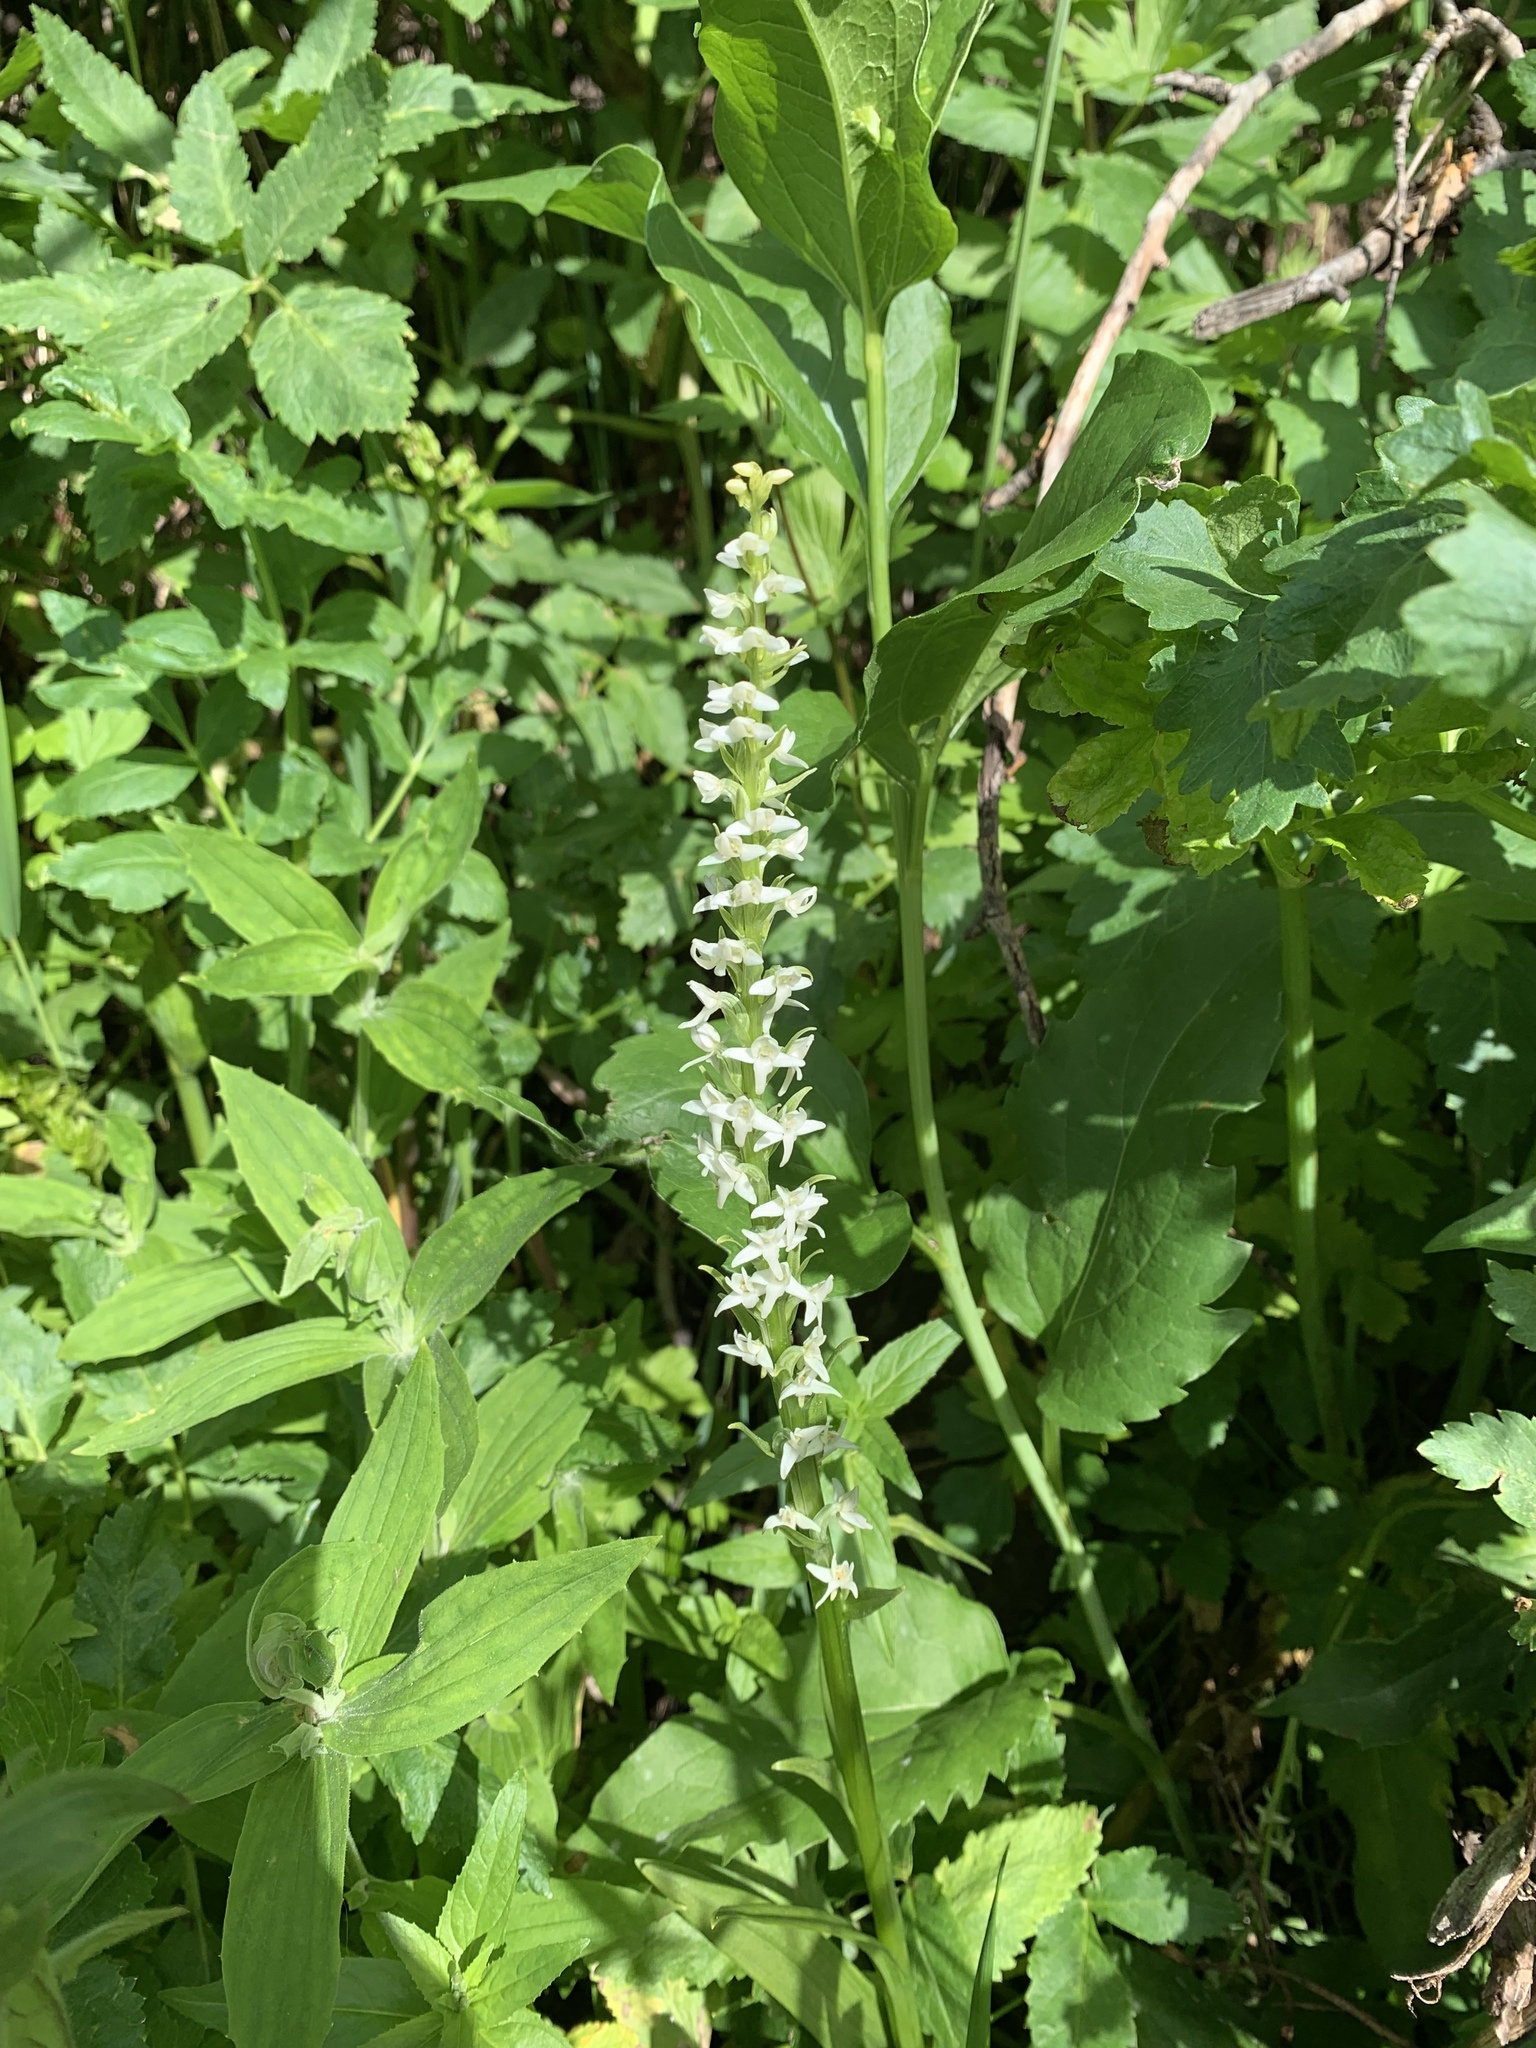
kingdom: Plantae
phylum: Tracheophyta
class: Liliopsida
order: Asparagales
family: Orchidaceae
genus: Platanthera
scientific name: Platanthera dilatata
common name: Bog candles
